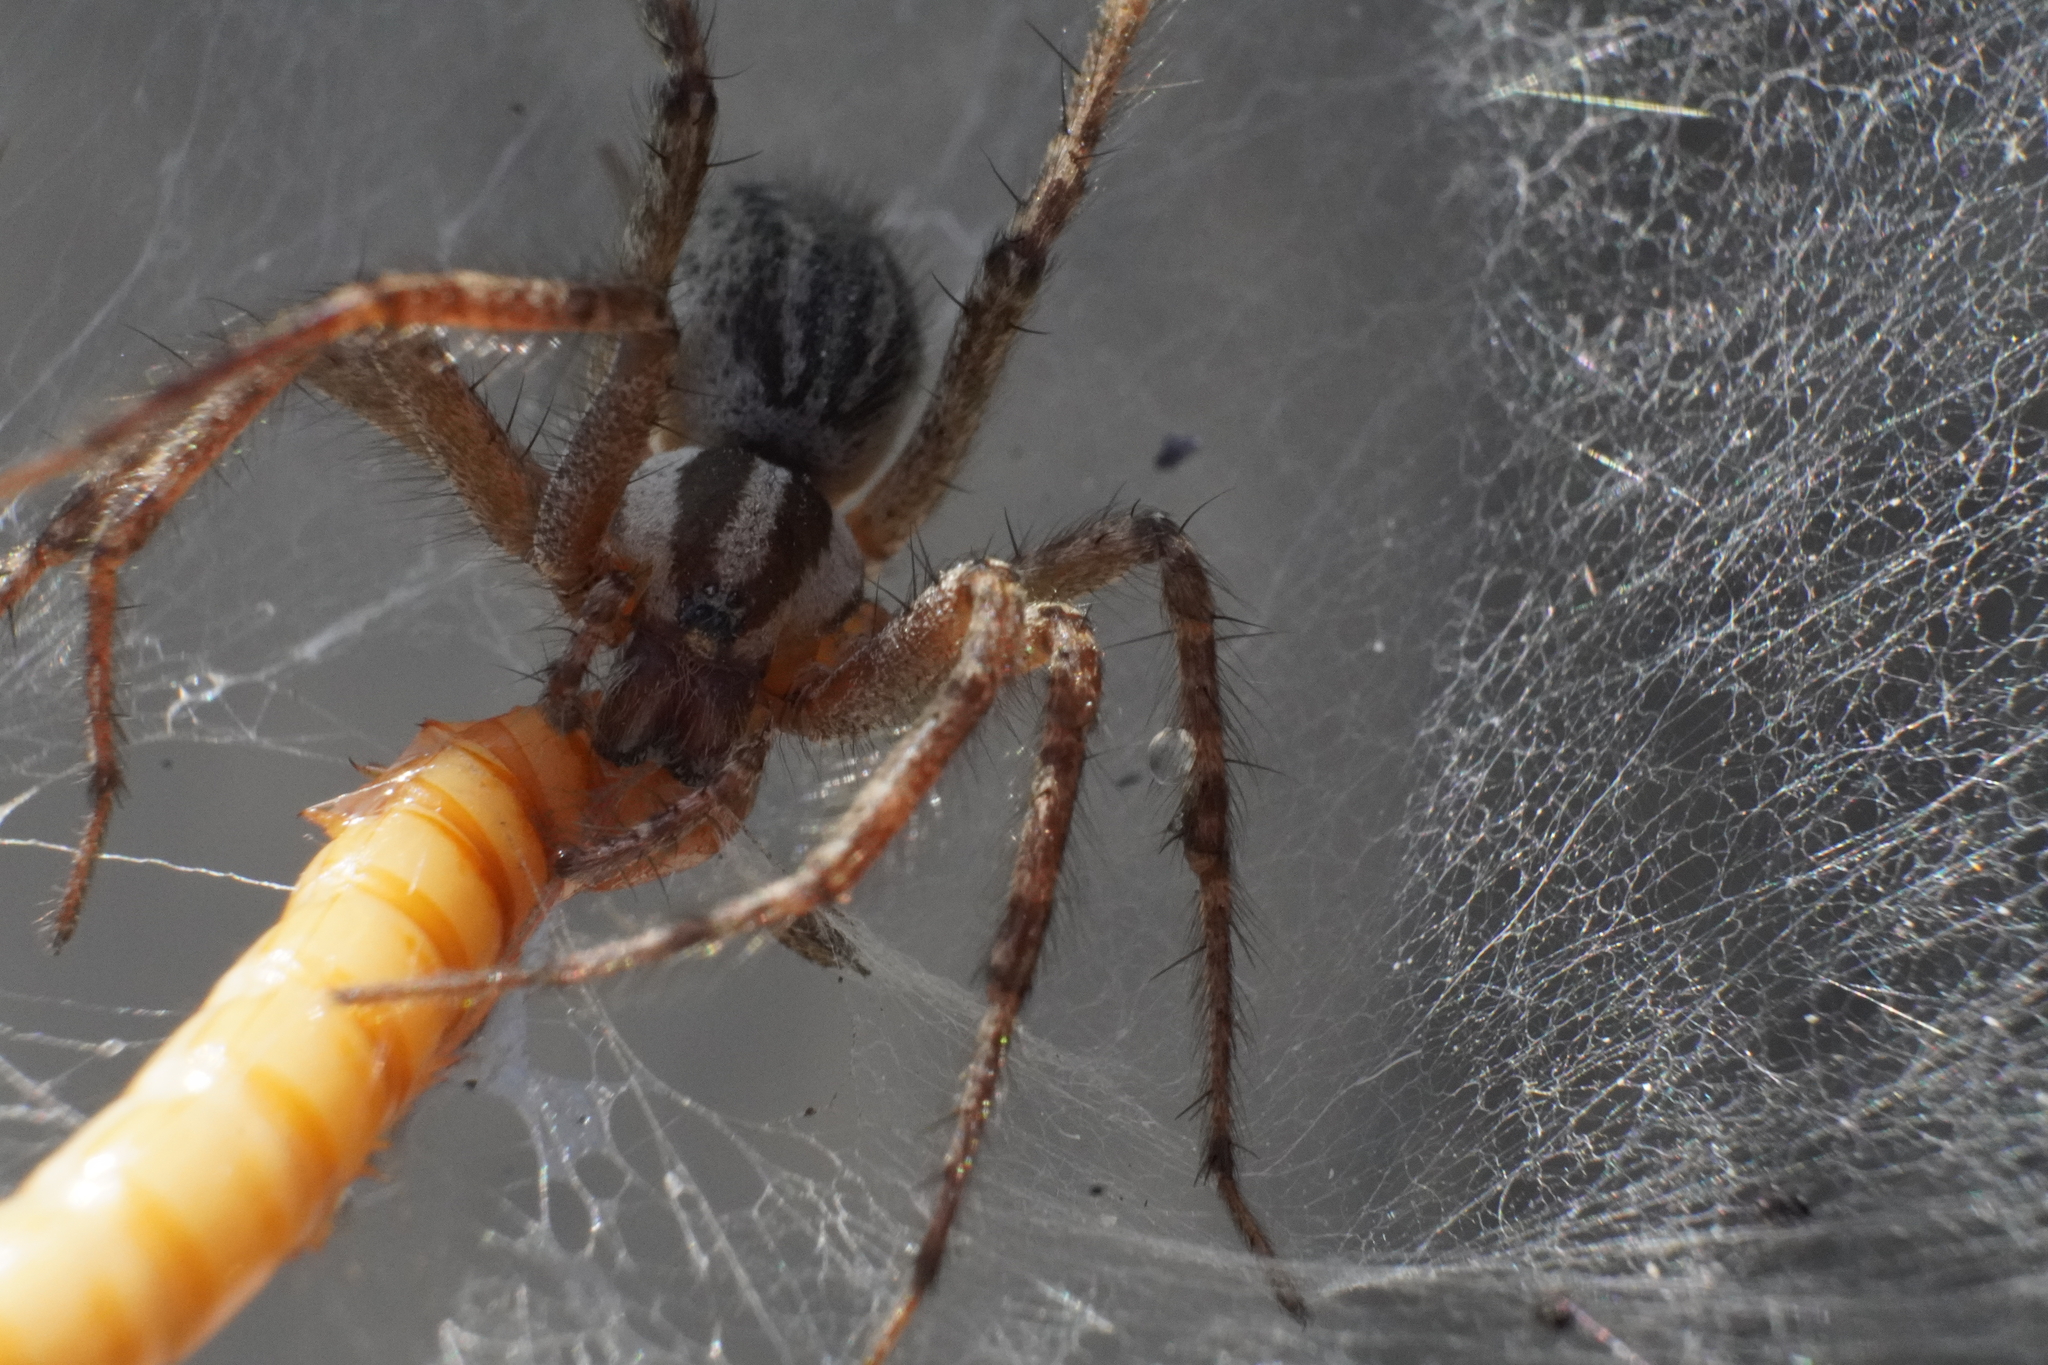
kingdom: Animalia
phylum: Arthropoda
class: Arachnida
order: Araneae
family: Agelenidae
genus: Agelenopsis
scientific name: Agelenopsis
